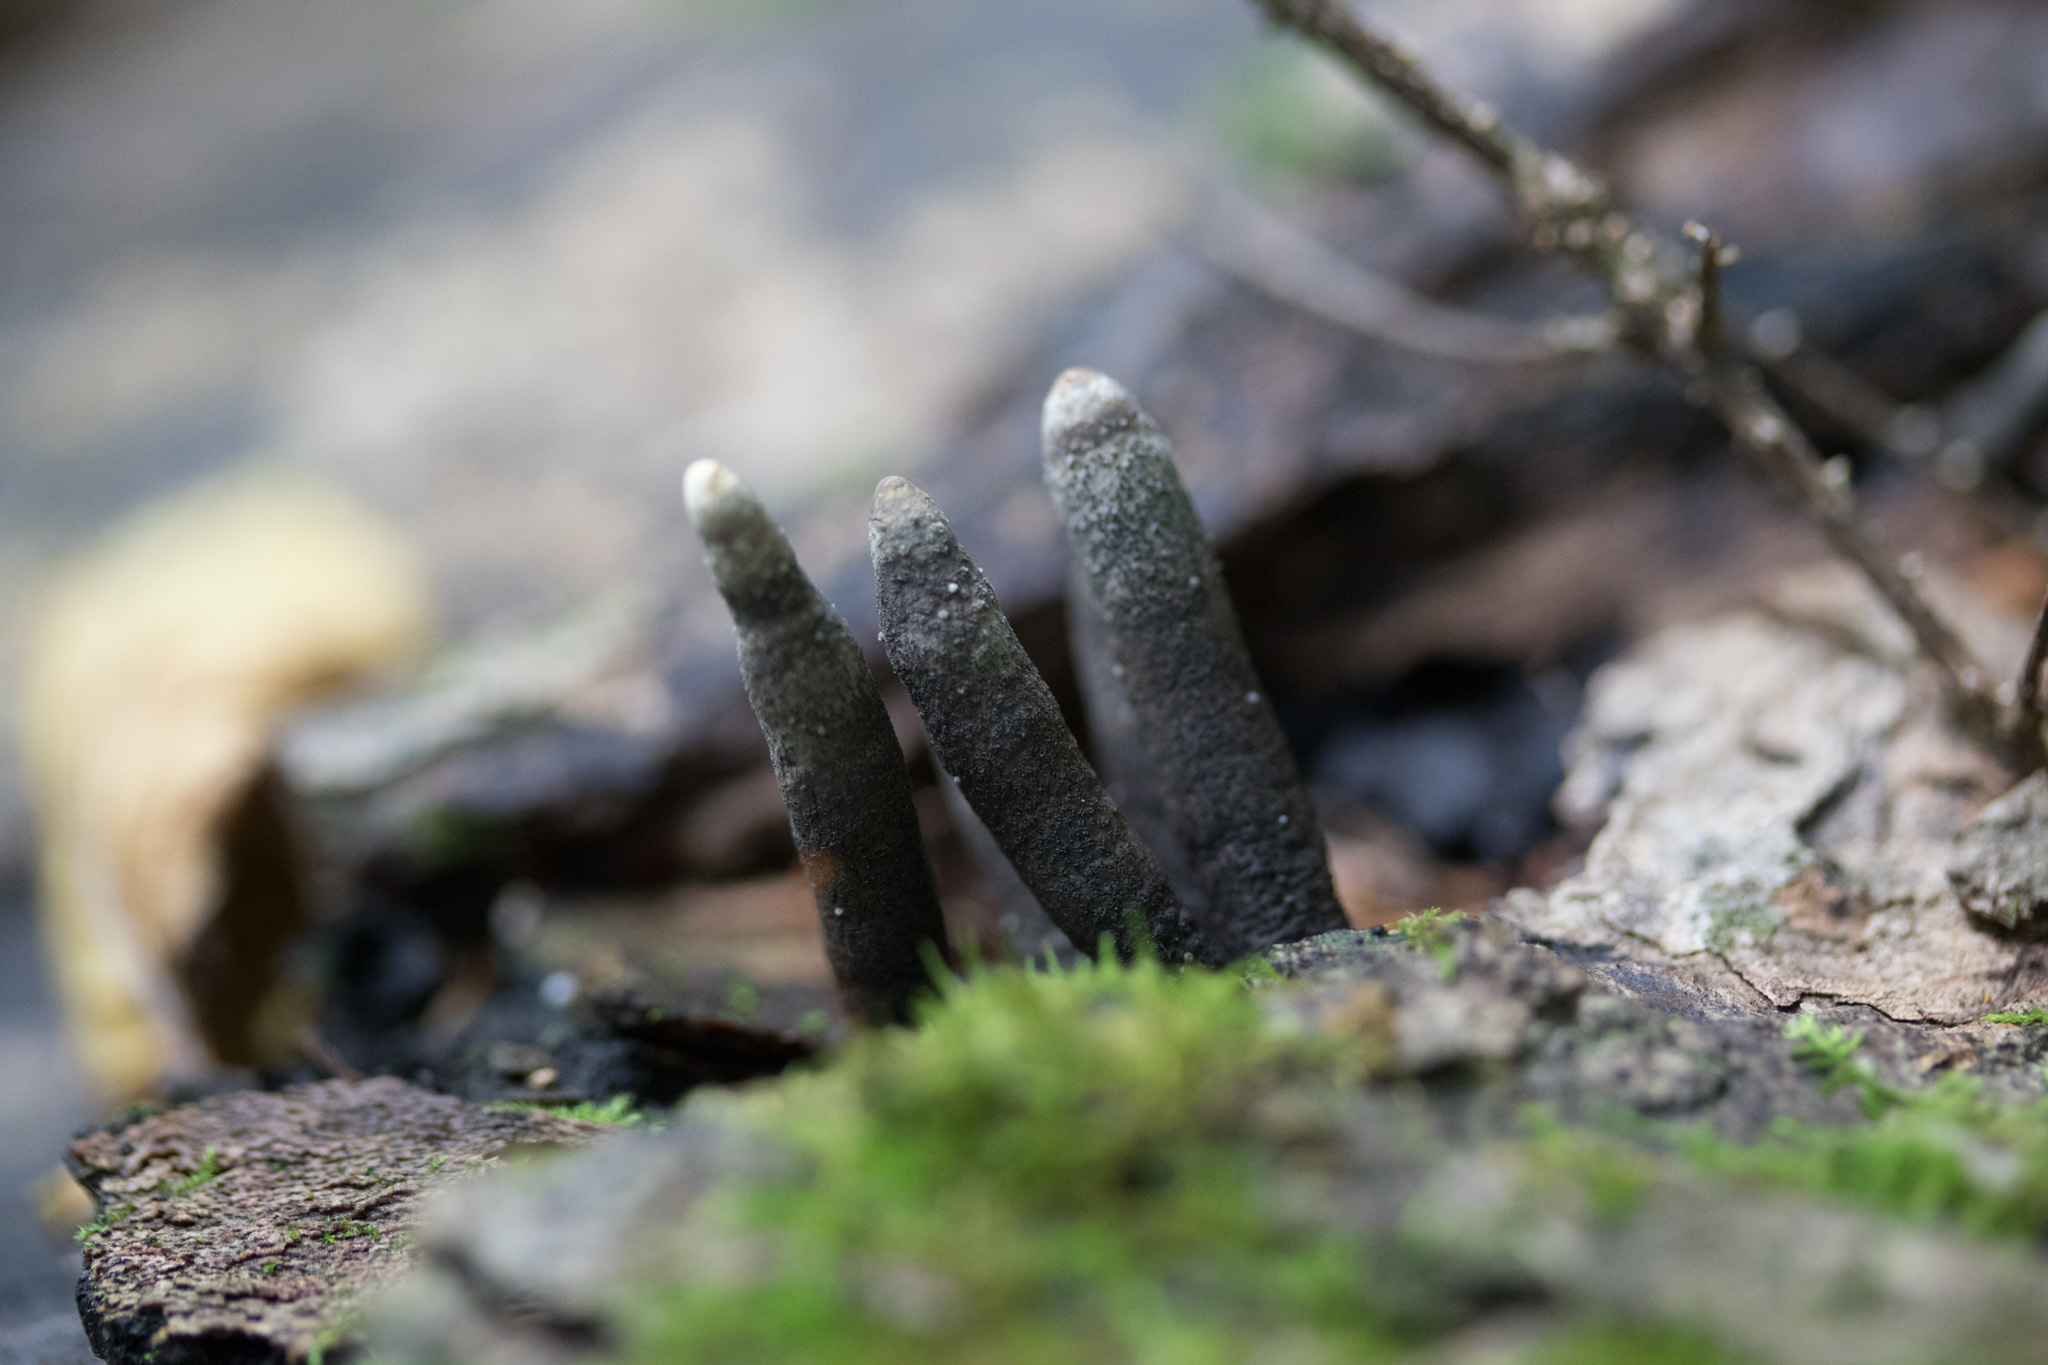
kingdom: Fungi
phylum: Ascomycota
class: Sordariomycetes
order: Xylariales
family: Xylariaceae
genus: Xylaria
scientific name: Xylaria longipes
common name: Dead moll's fingers
